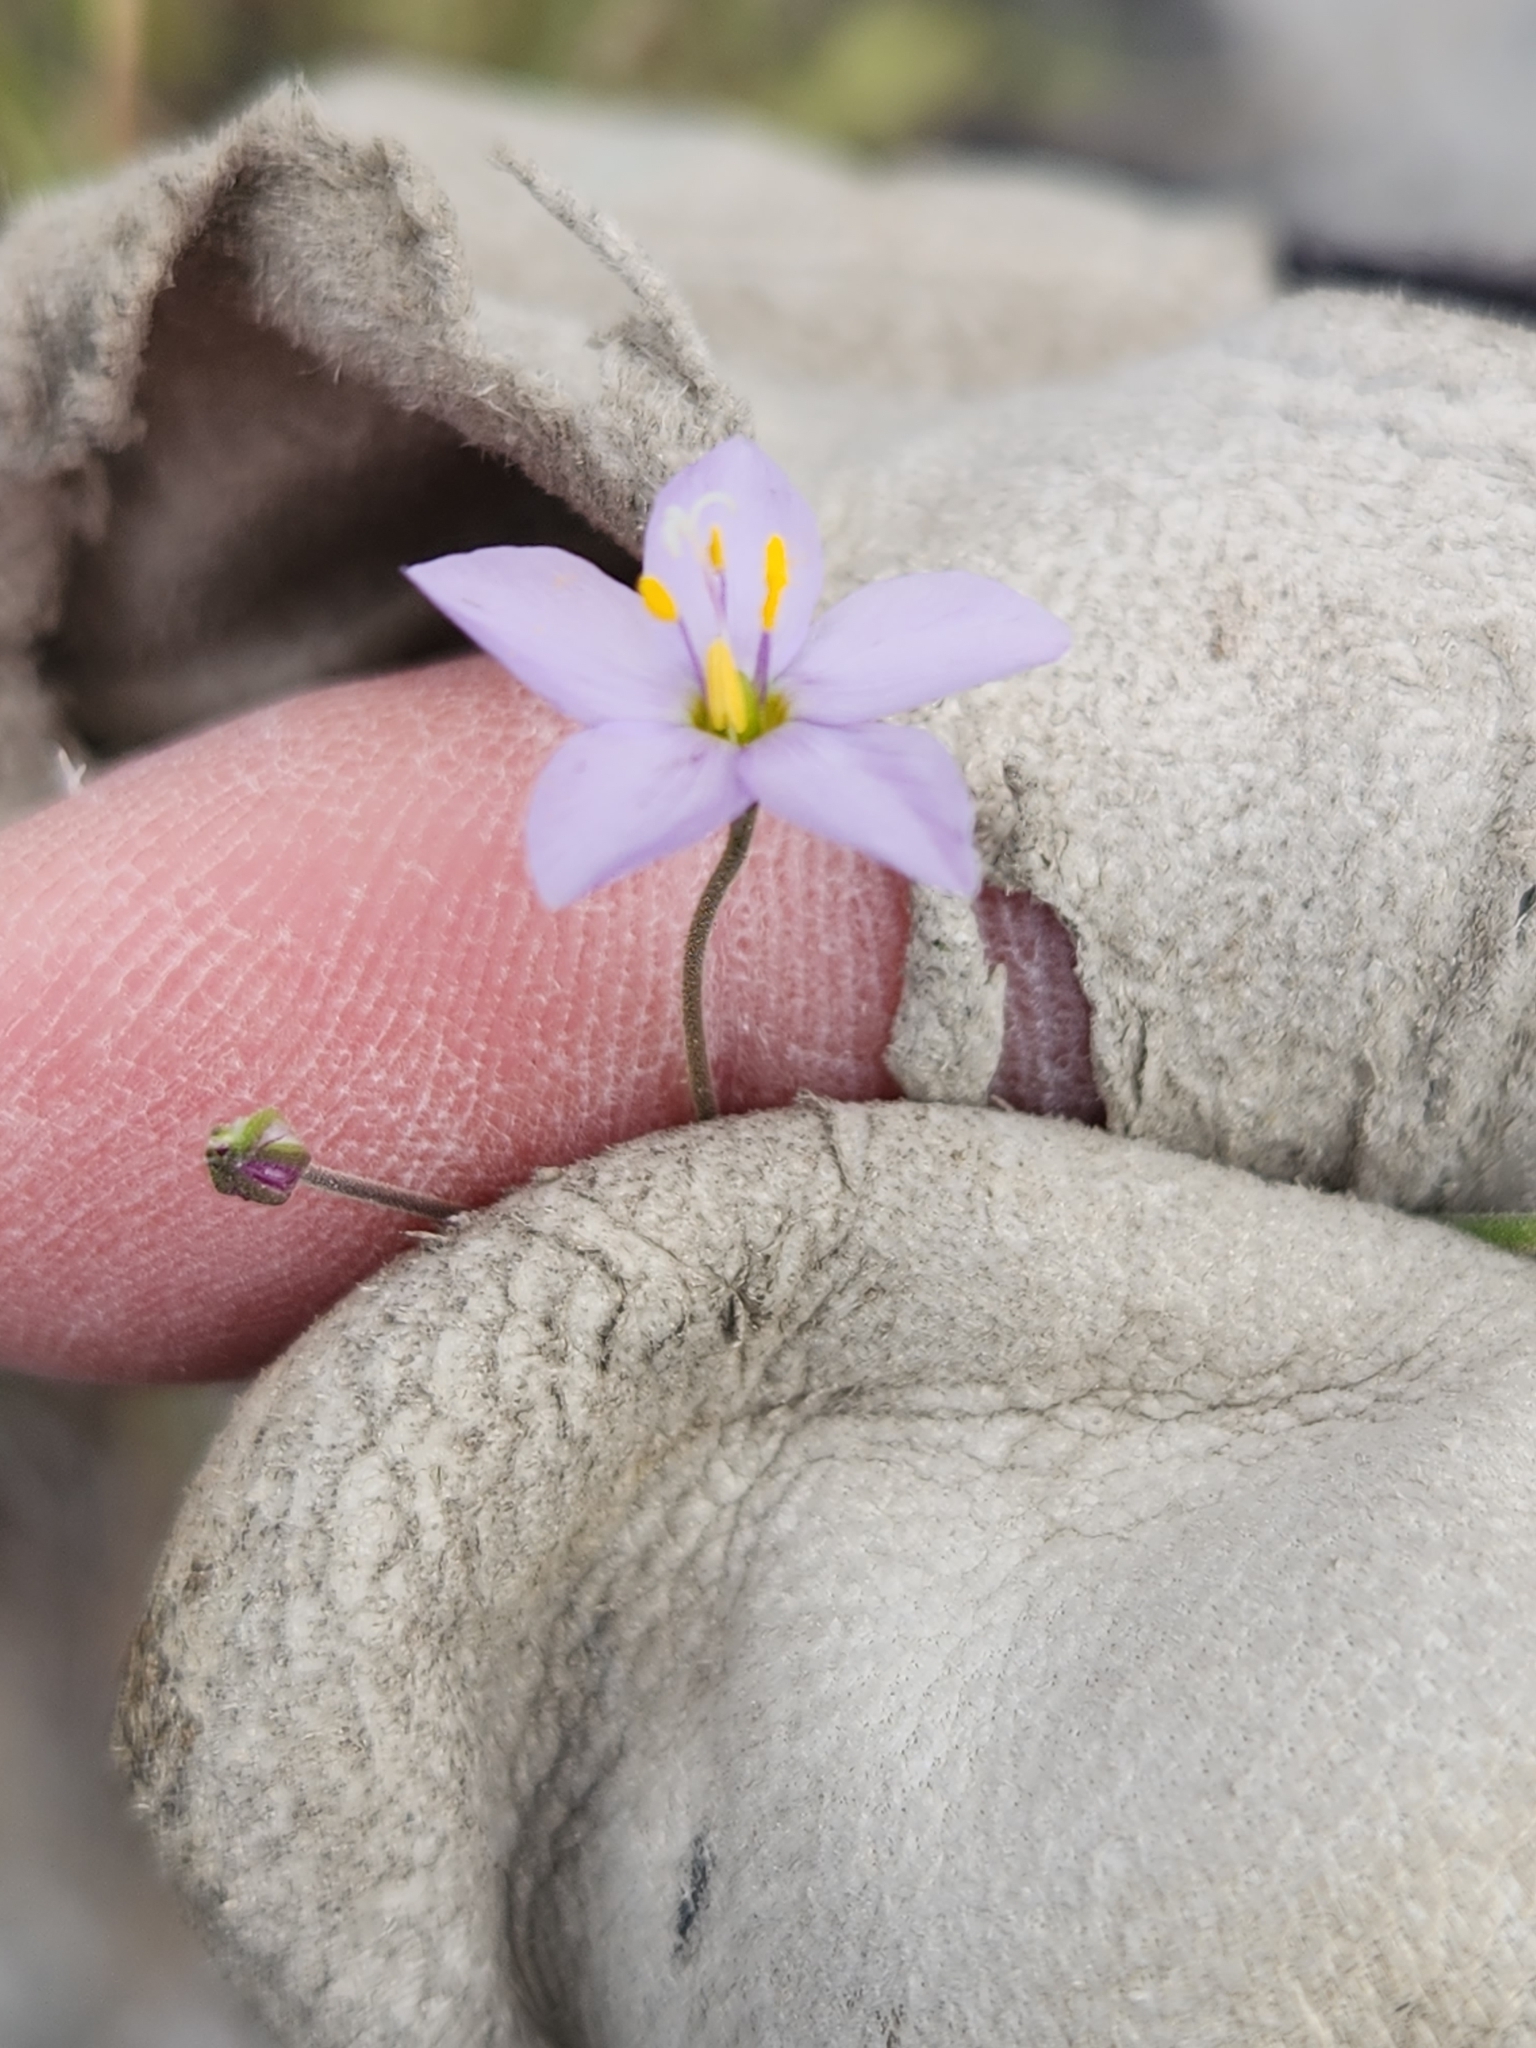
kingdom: Plantae
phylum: Tracheophyta
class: Magnoliopsida
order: Ericales
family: Polemoniaceae
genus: Giliastrum
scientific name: Giliastrum incisum
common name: Splitleaf gilia
